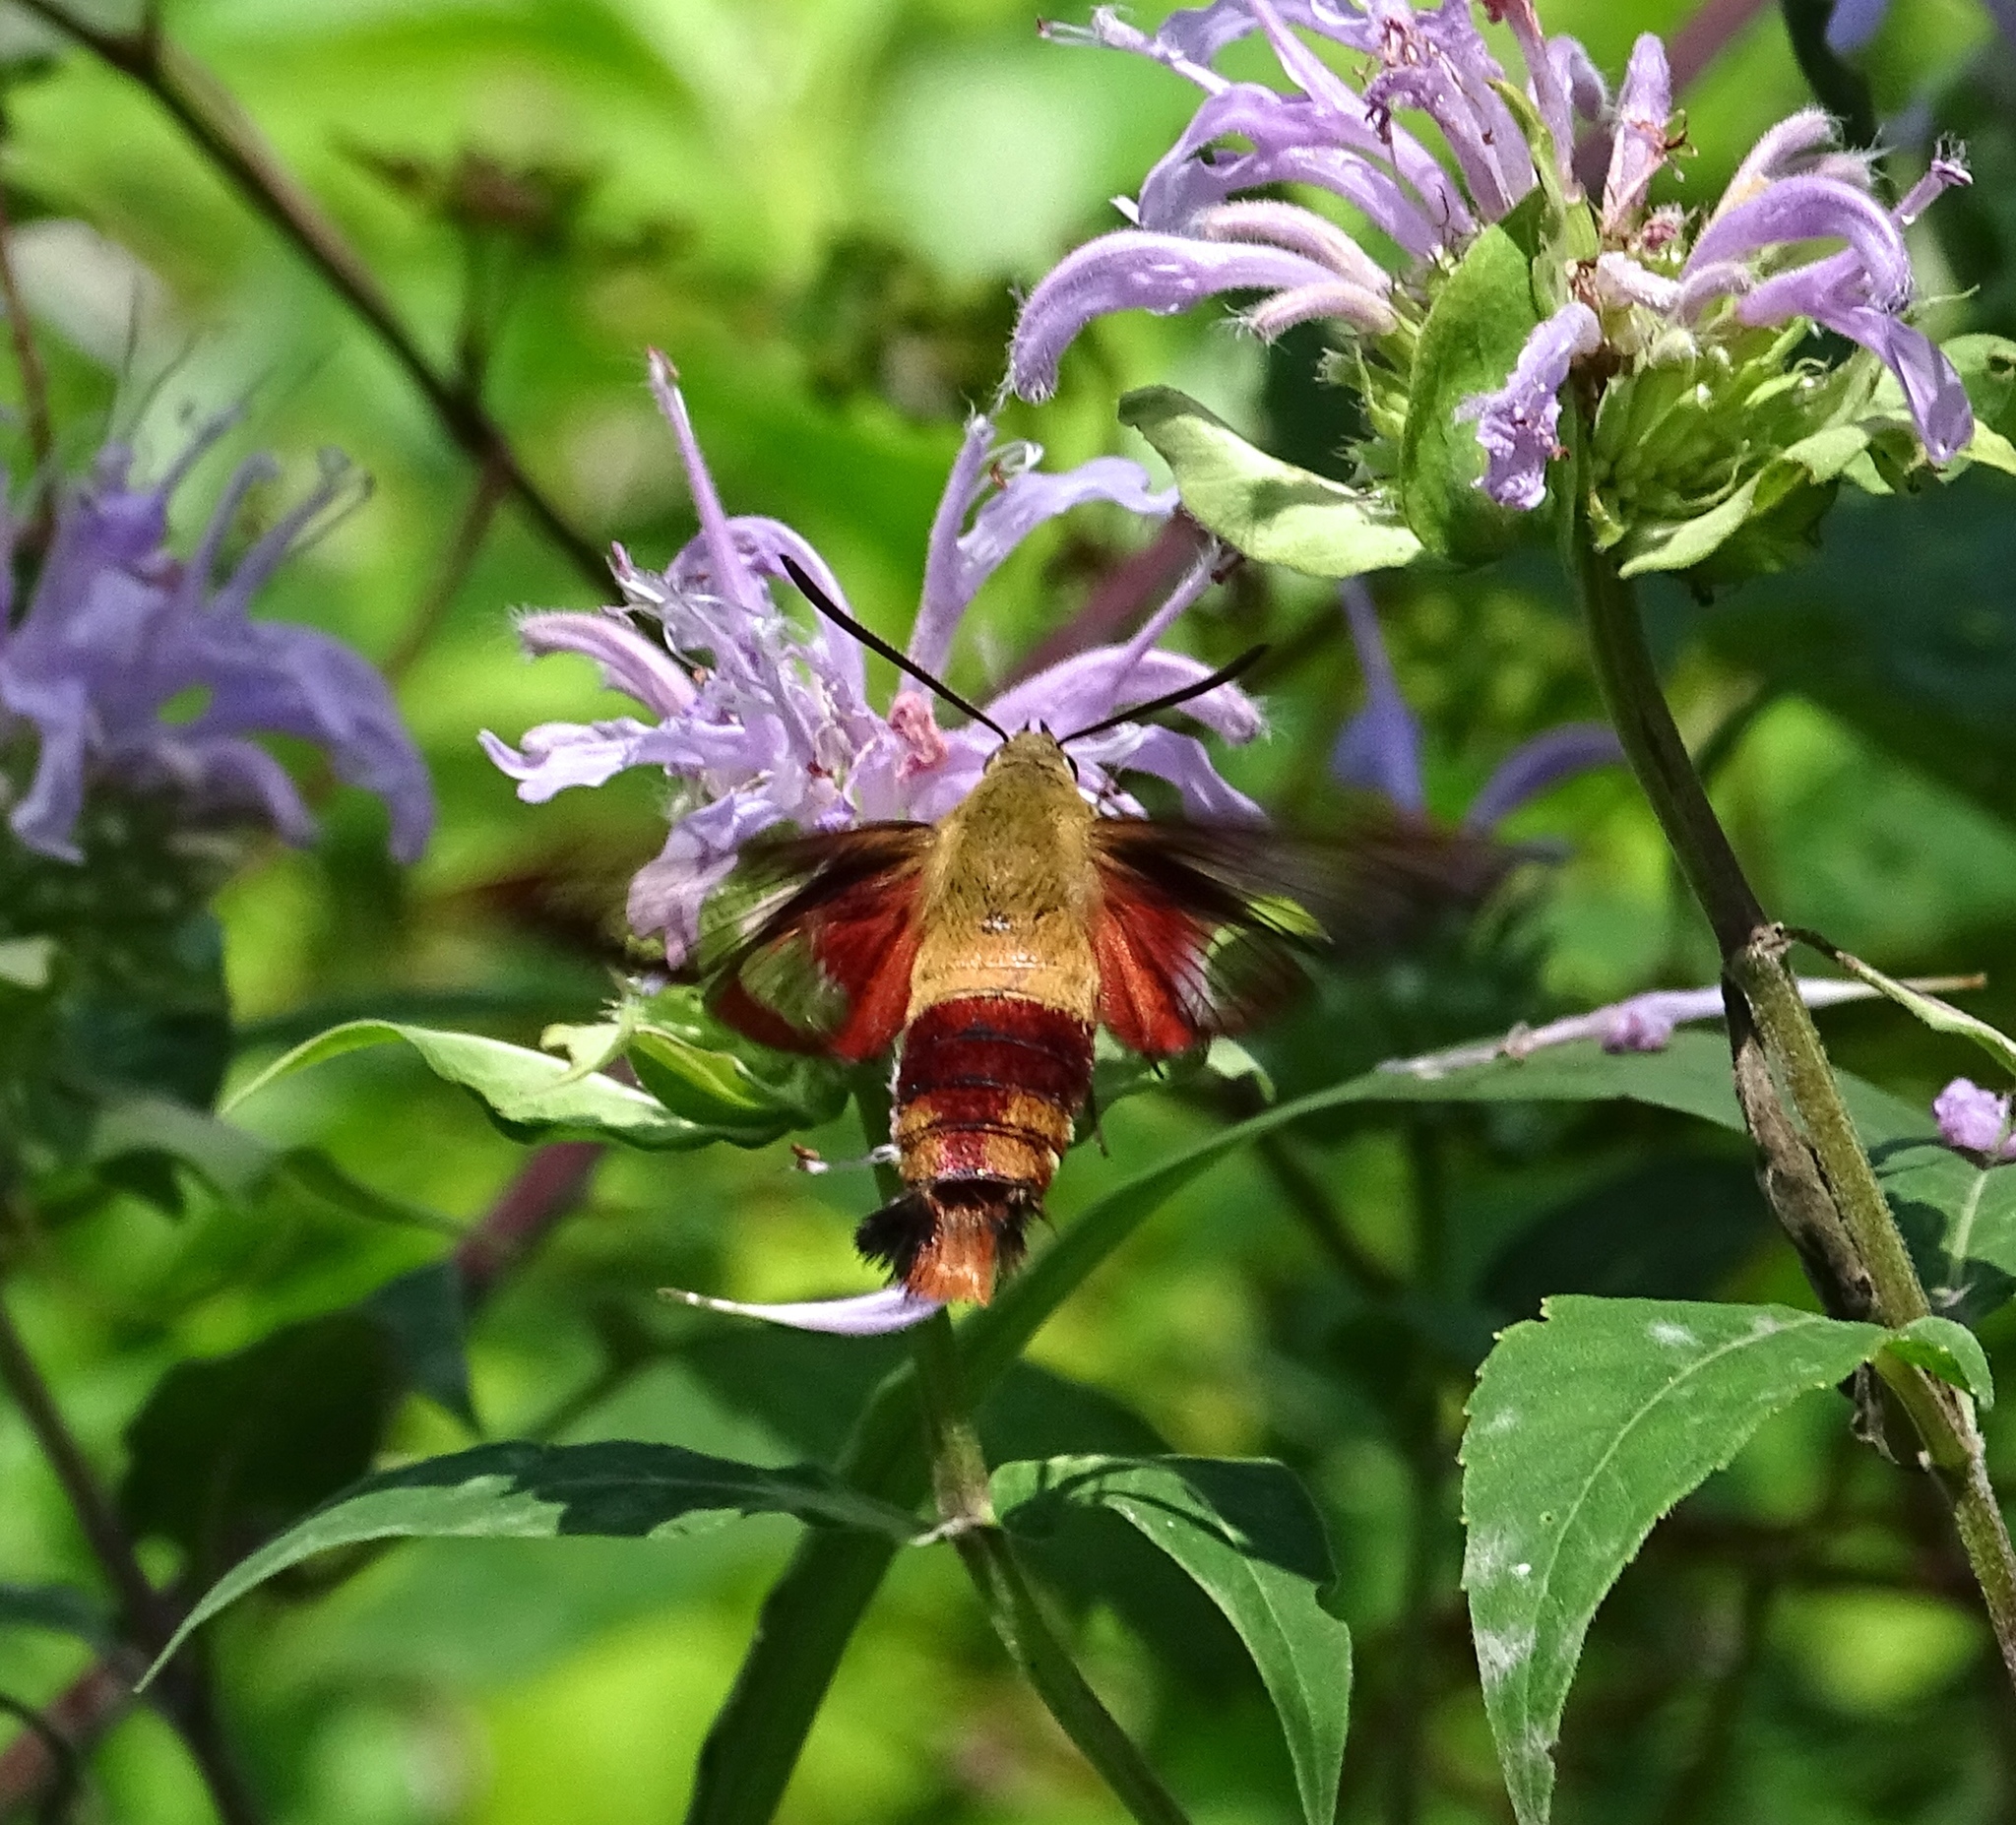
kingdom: Animalia
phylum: Arthropoda
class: Insecta
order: Lepidoptera
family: Sphingidae
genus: Hemaris
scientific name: Hemaris thysbe
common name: Common clear-wing
